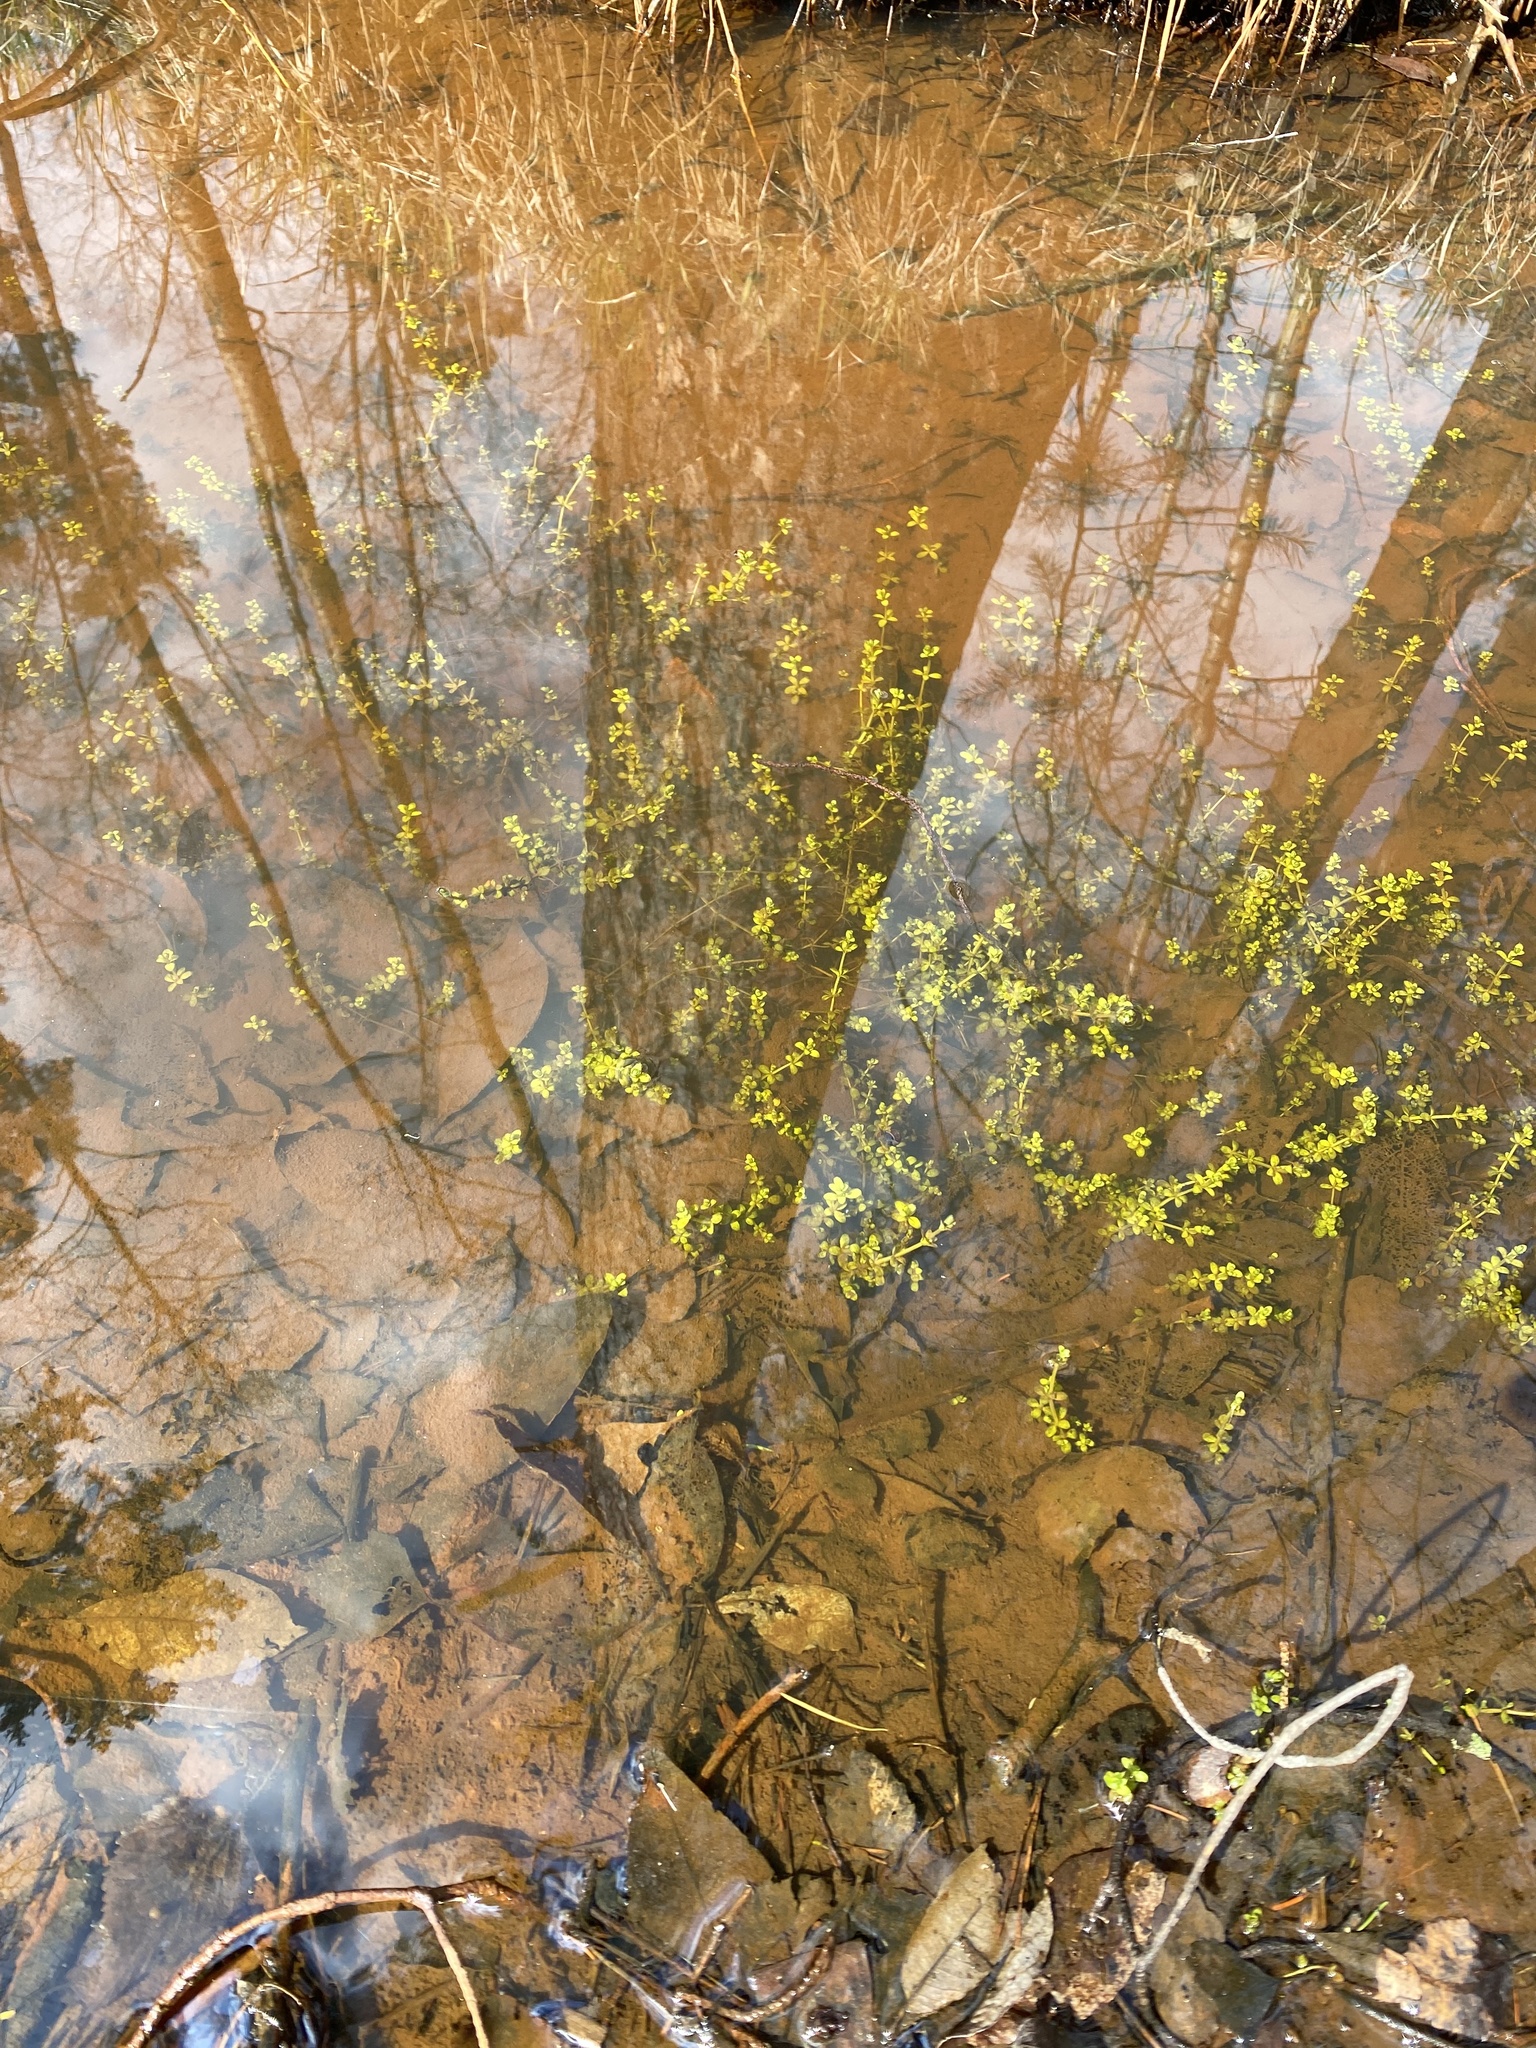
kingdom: Plantae
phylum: Tracheophyta
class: Magnoliopsida
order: Gentianales
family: Rubiaceae
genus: Galium
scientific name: Galium palustre
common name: Common marsh-bedstraw
